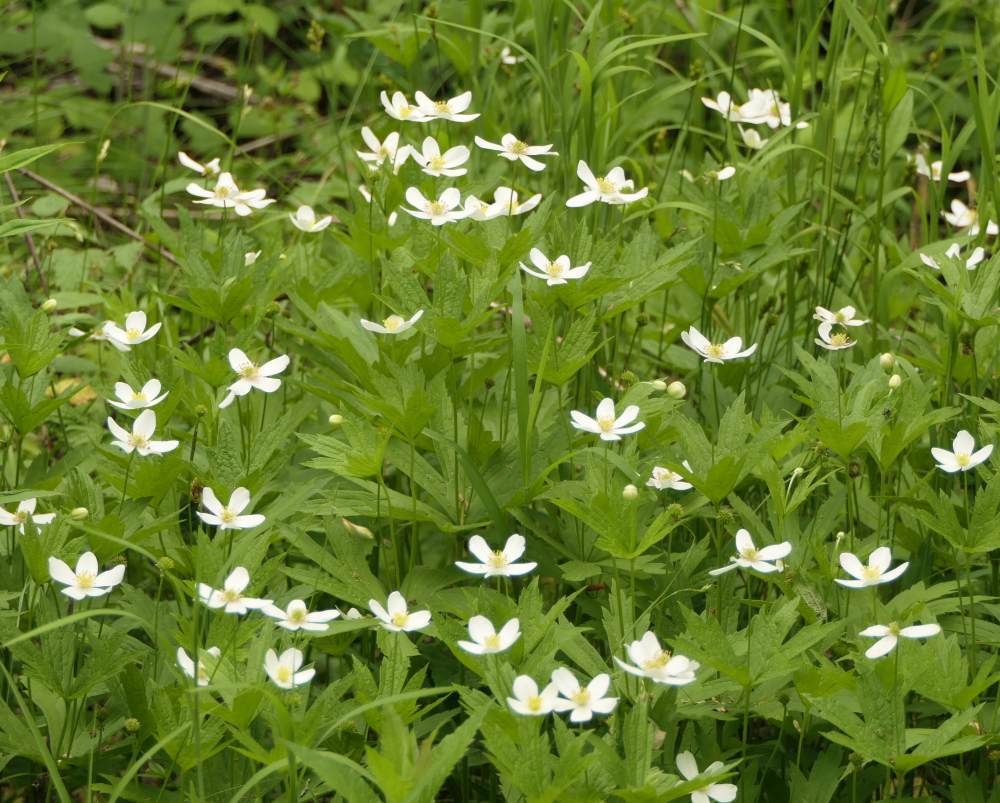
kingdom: Plantae
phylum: Tracheophyta
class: Magnoliopsida
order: Ranunculales
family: Ranunculaceae
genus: Anemonastrum
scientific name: Anemonastrum canadense
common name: Canada anemone
